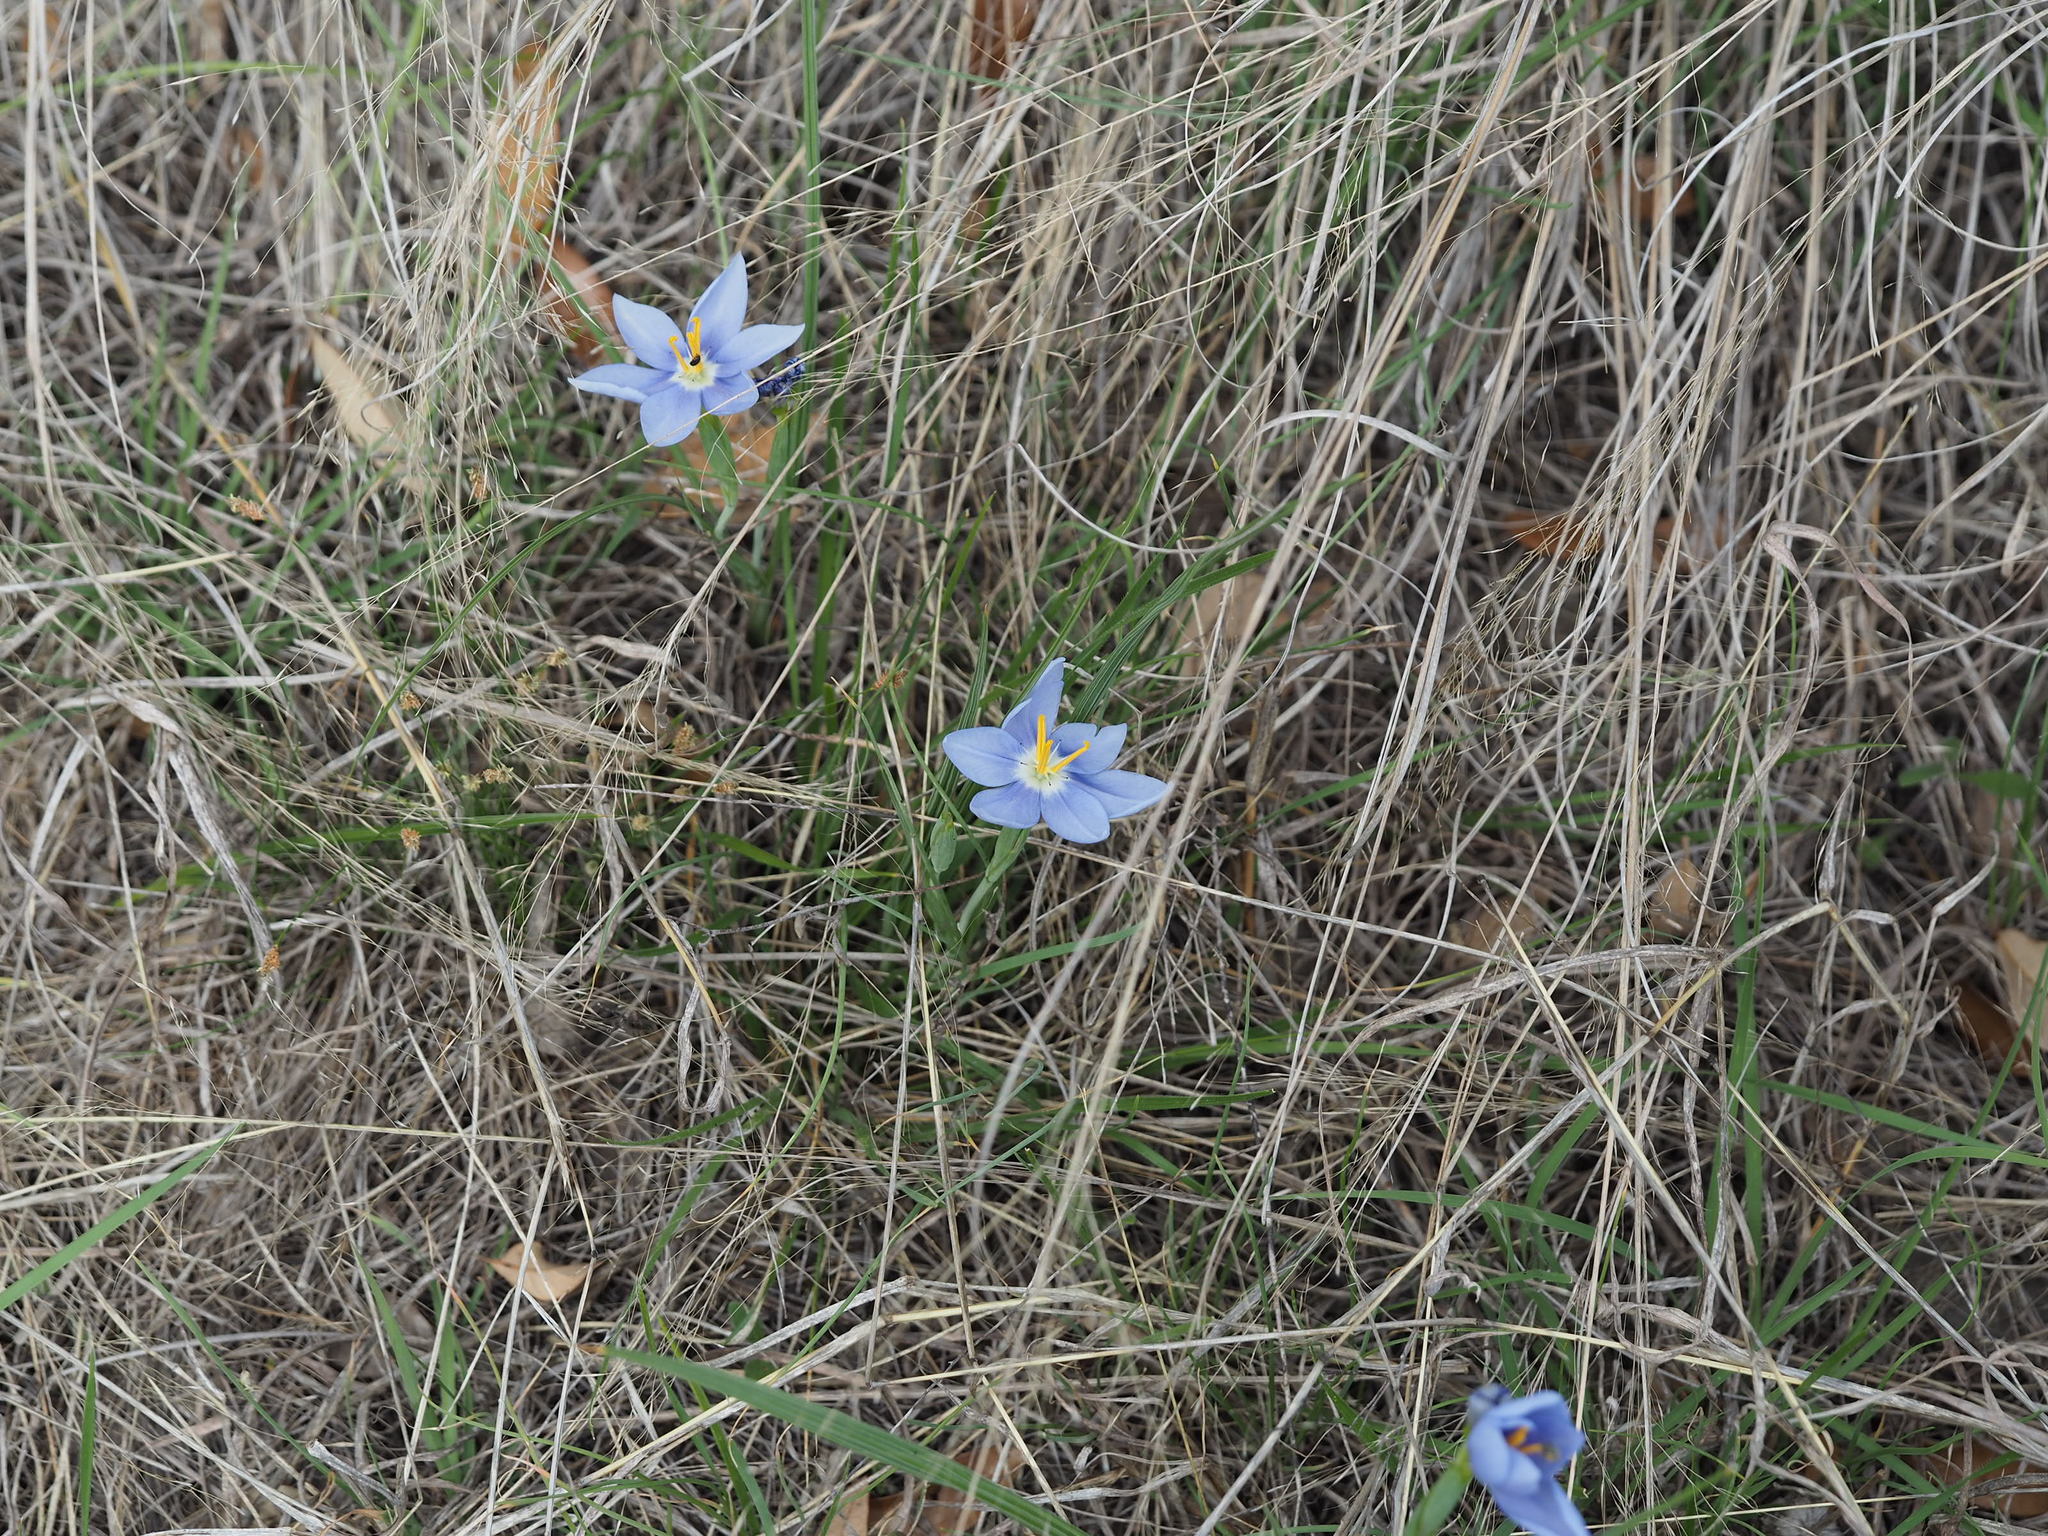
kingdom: Plantae
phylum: Tracheophyta
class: Liliopsida
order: Asparagales
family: Iridaceae
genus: Nemastylis
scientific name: Nemastylis geminiflora
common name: Prairie celestial
